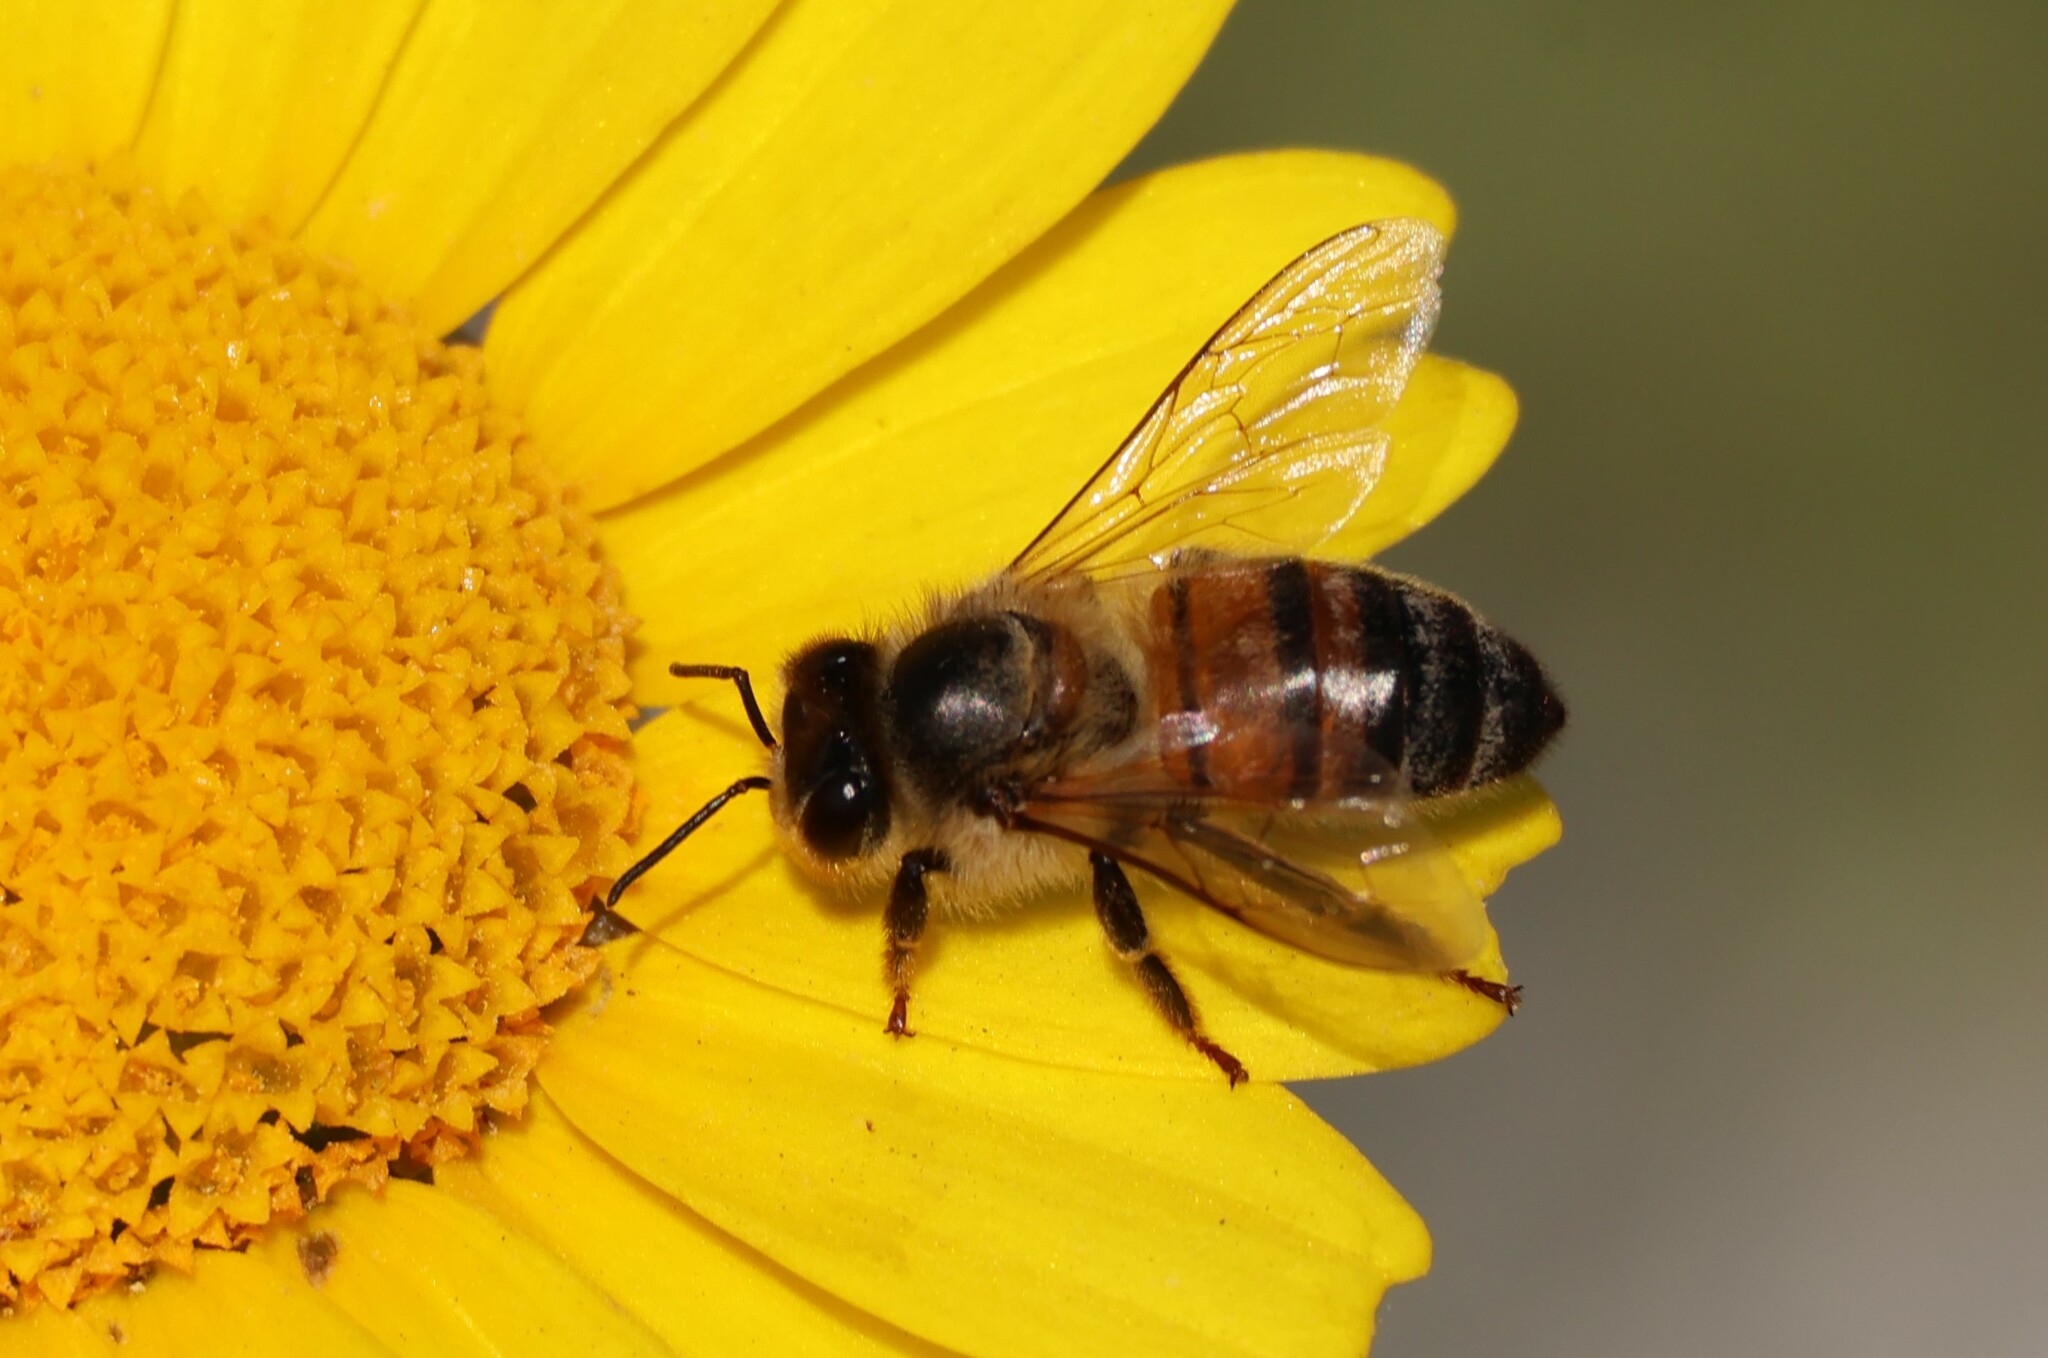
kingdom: Animalia
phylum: Arthropoda
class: Insecta
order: Hymenoptera
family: Apidae
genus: Apis
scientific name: Apis mellifera
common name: Honey bee
